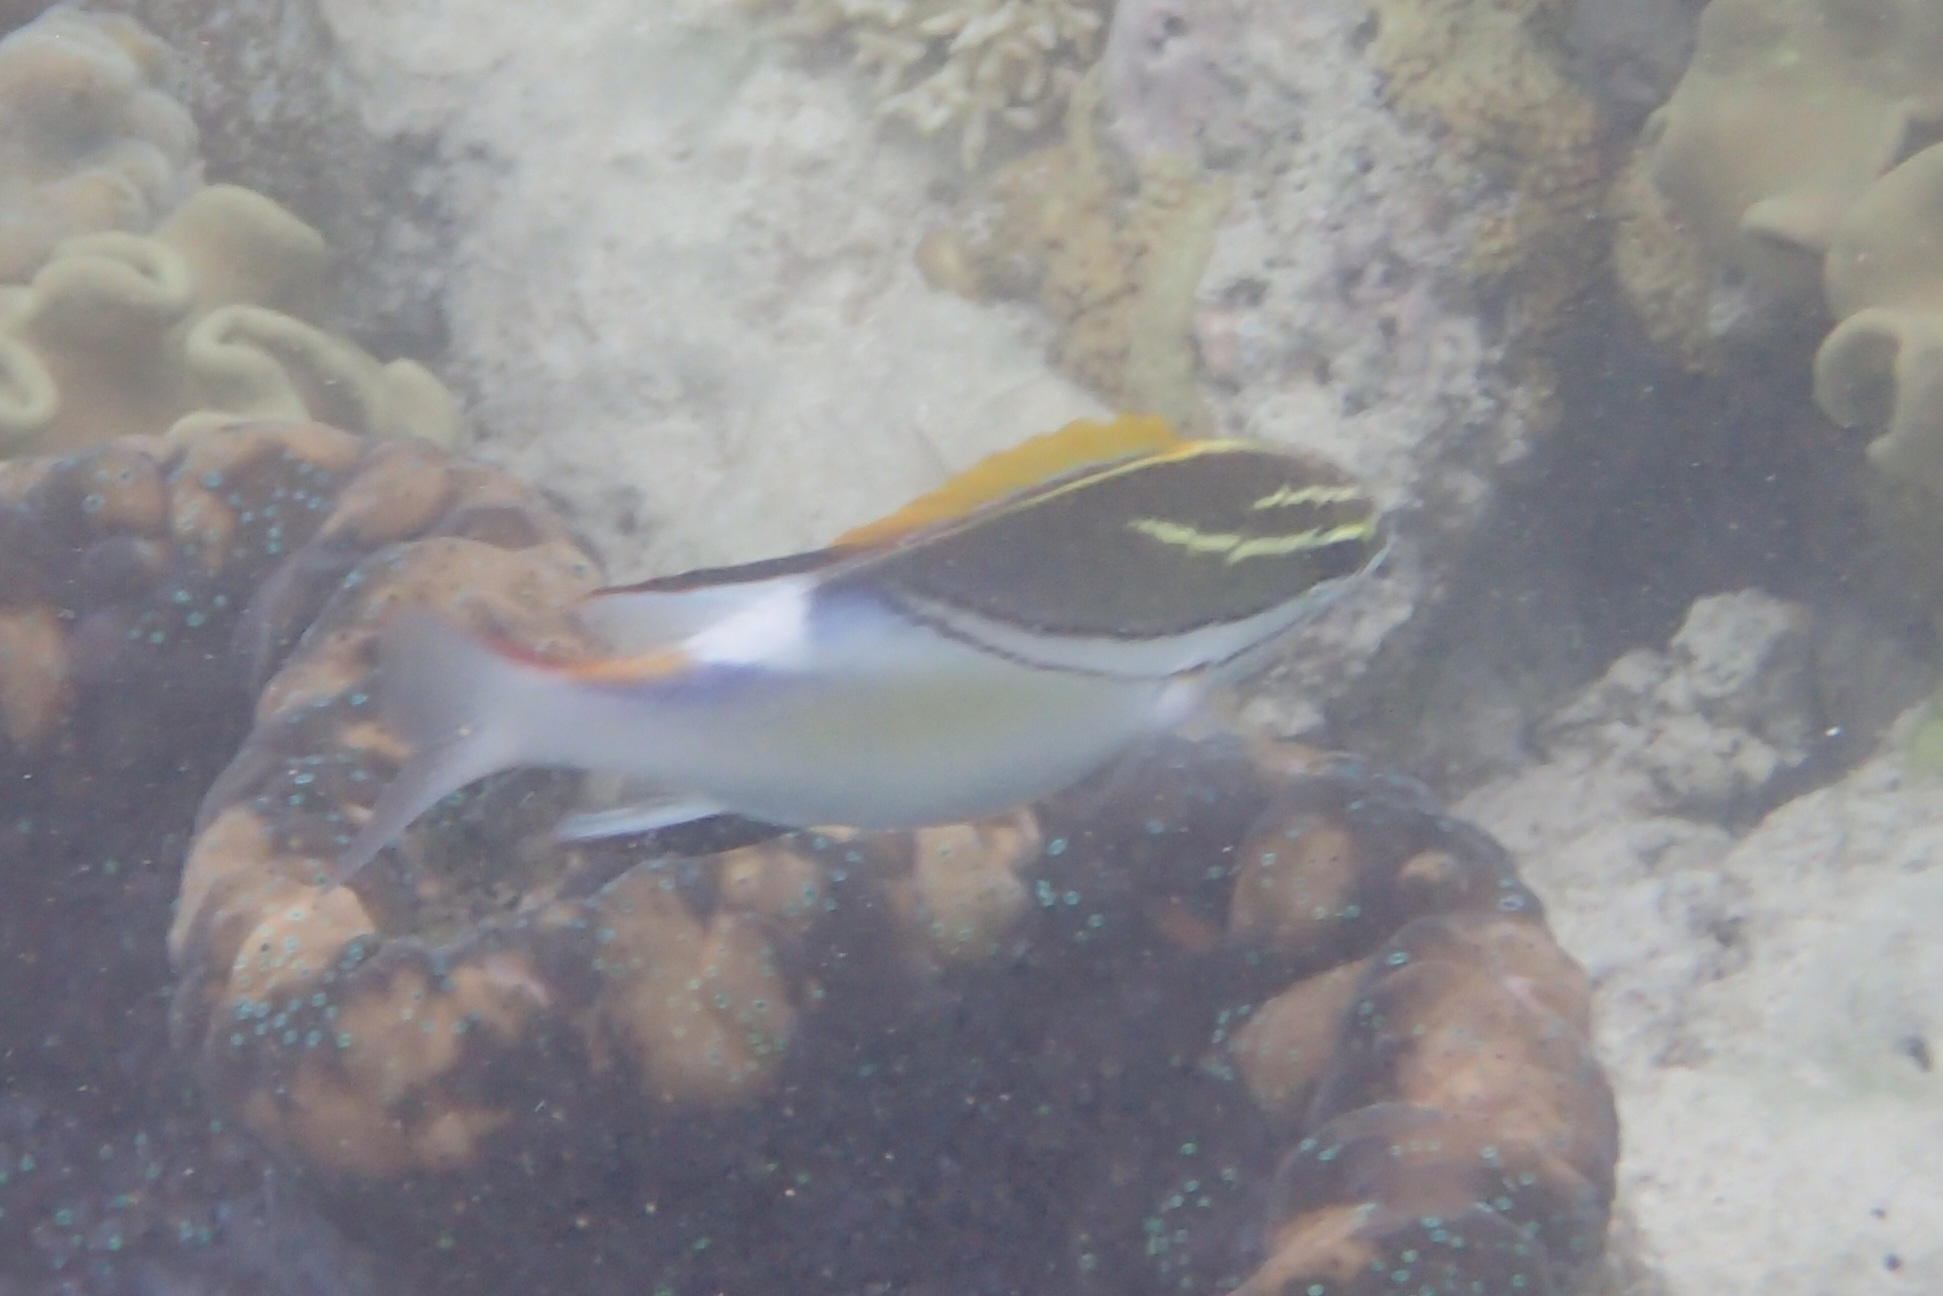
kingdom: Animalia
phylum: Chordata
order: Perciformes
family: Nemipteridae
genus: Scolopsis
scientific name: Scolopsis bilineata
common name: Two-lined monocle bream
